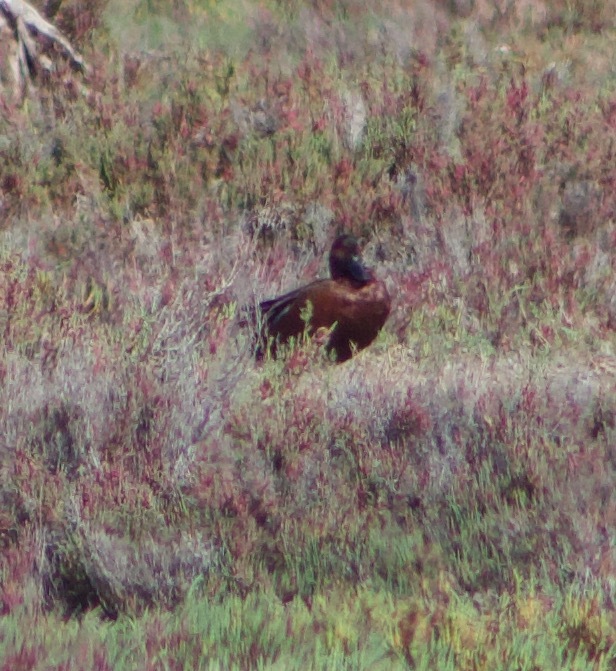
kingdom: Animalia
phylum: Chordata
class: Aves
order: Anseriformes
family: Anatidae
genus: Spatula
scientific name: Spatula cyanoptera
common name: Cinnamon teal
